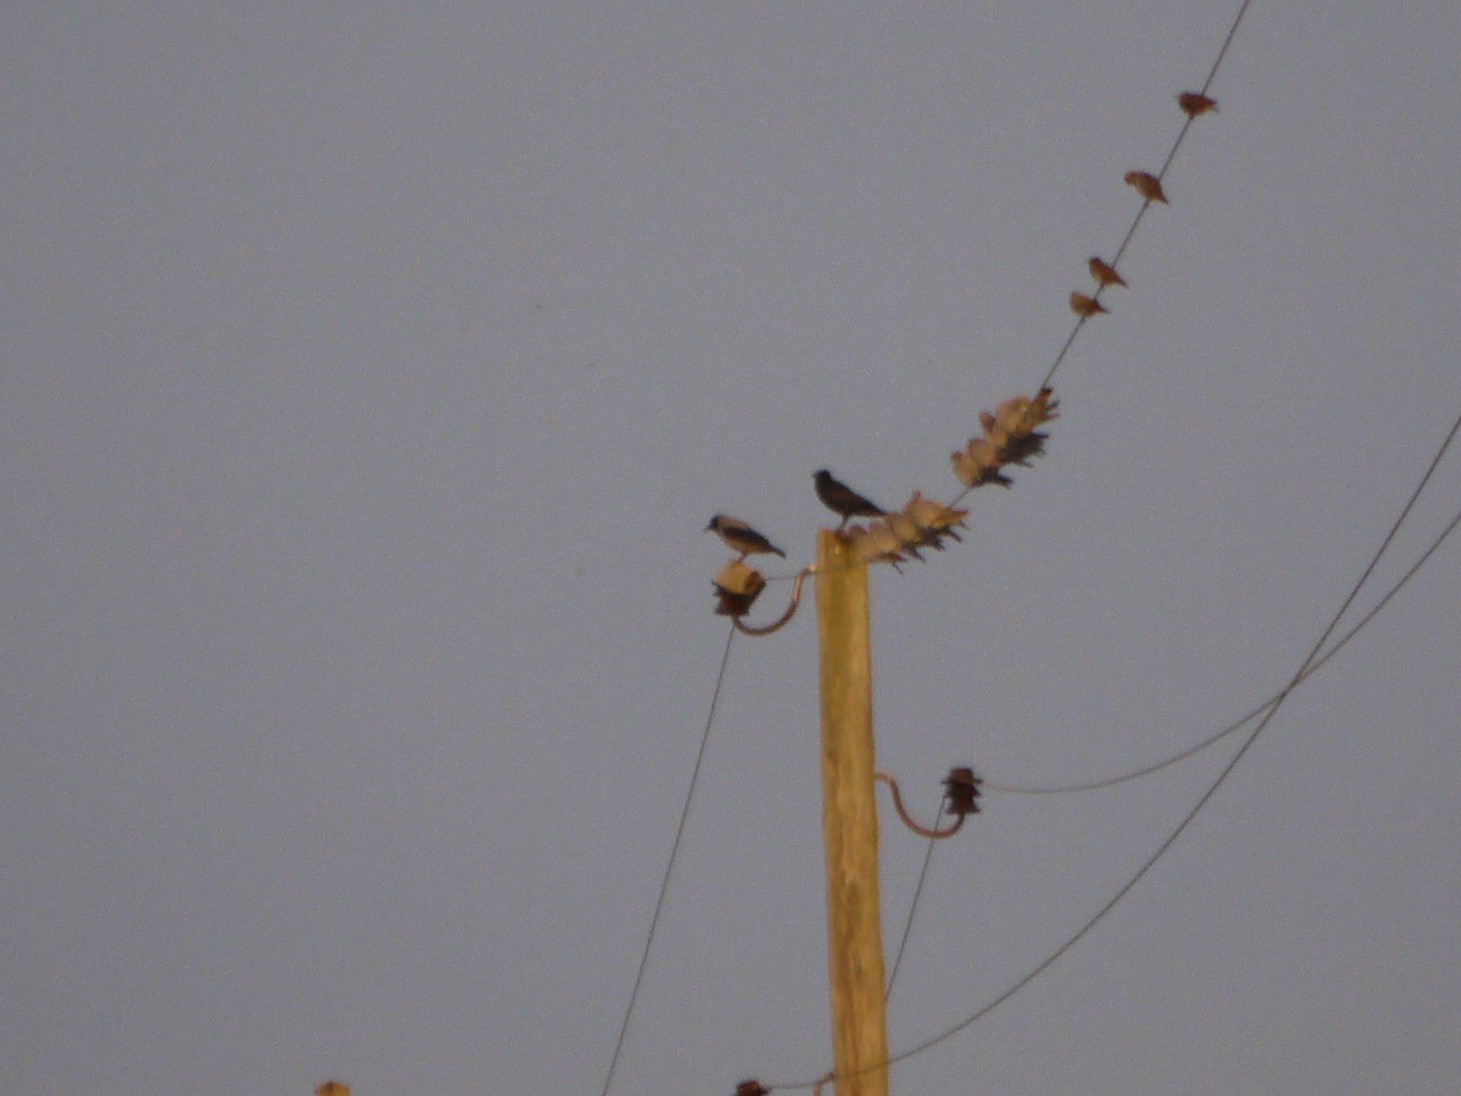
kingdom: Animalia
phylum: Chordata
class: Aves
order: Passeriformes
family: Corvidae
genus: Corvus
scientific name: Corvus cornix
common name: Hooded crow
